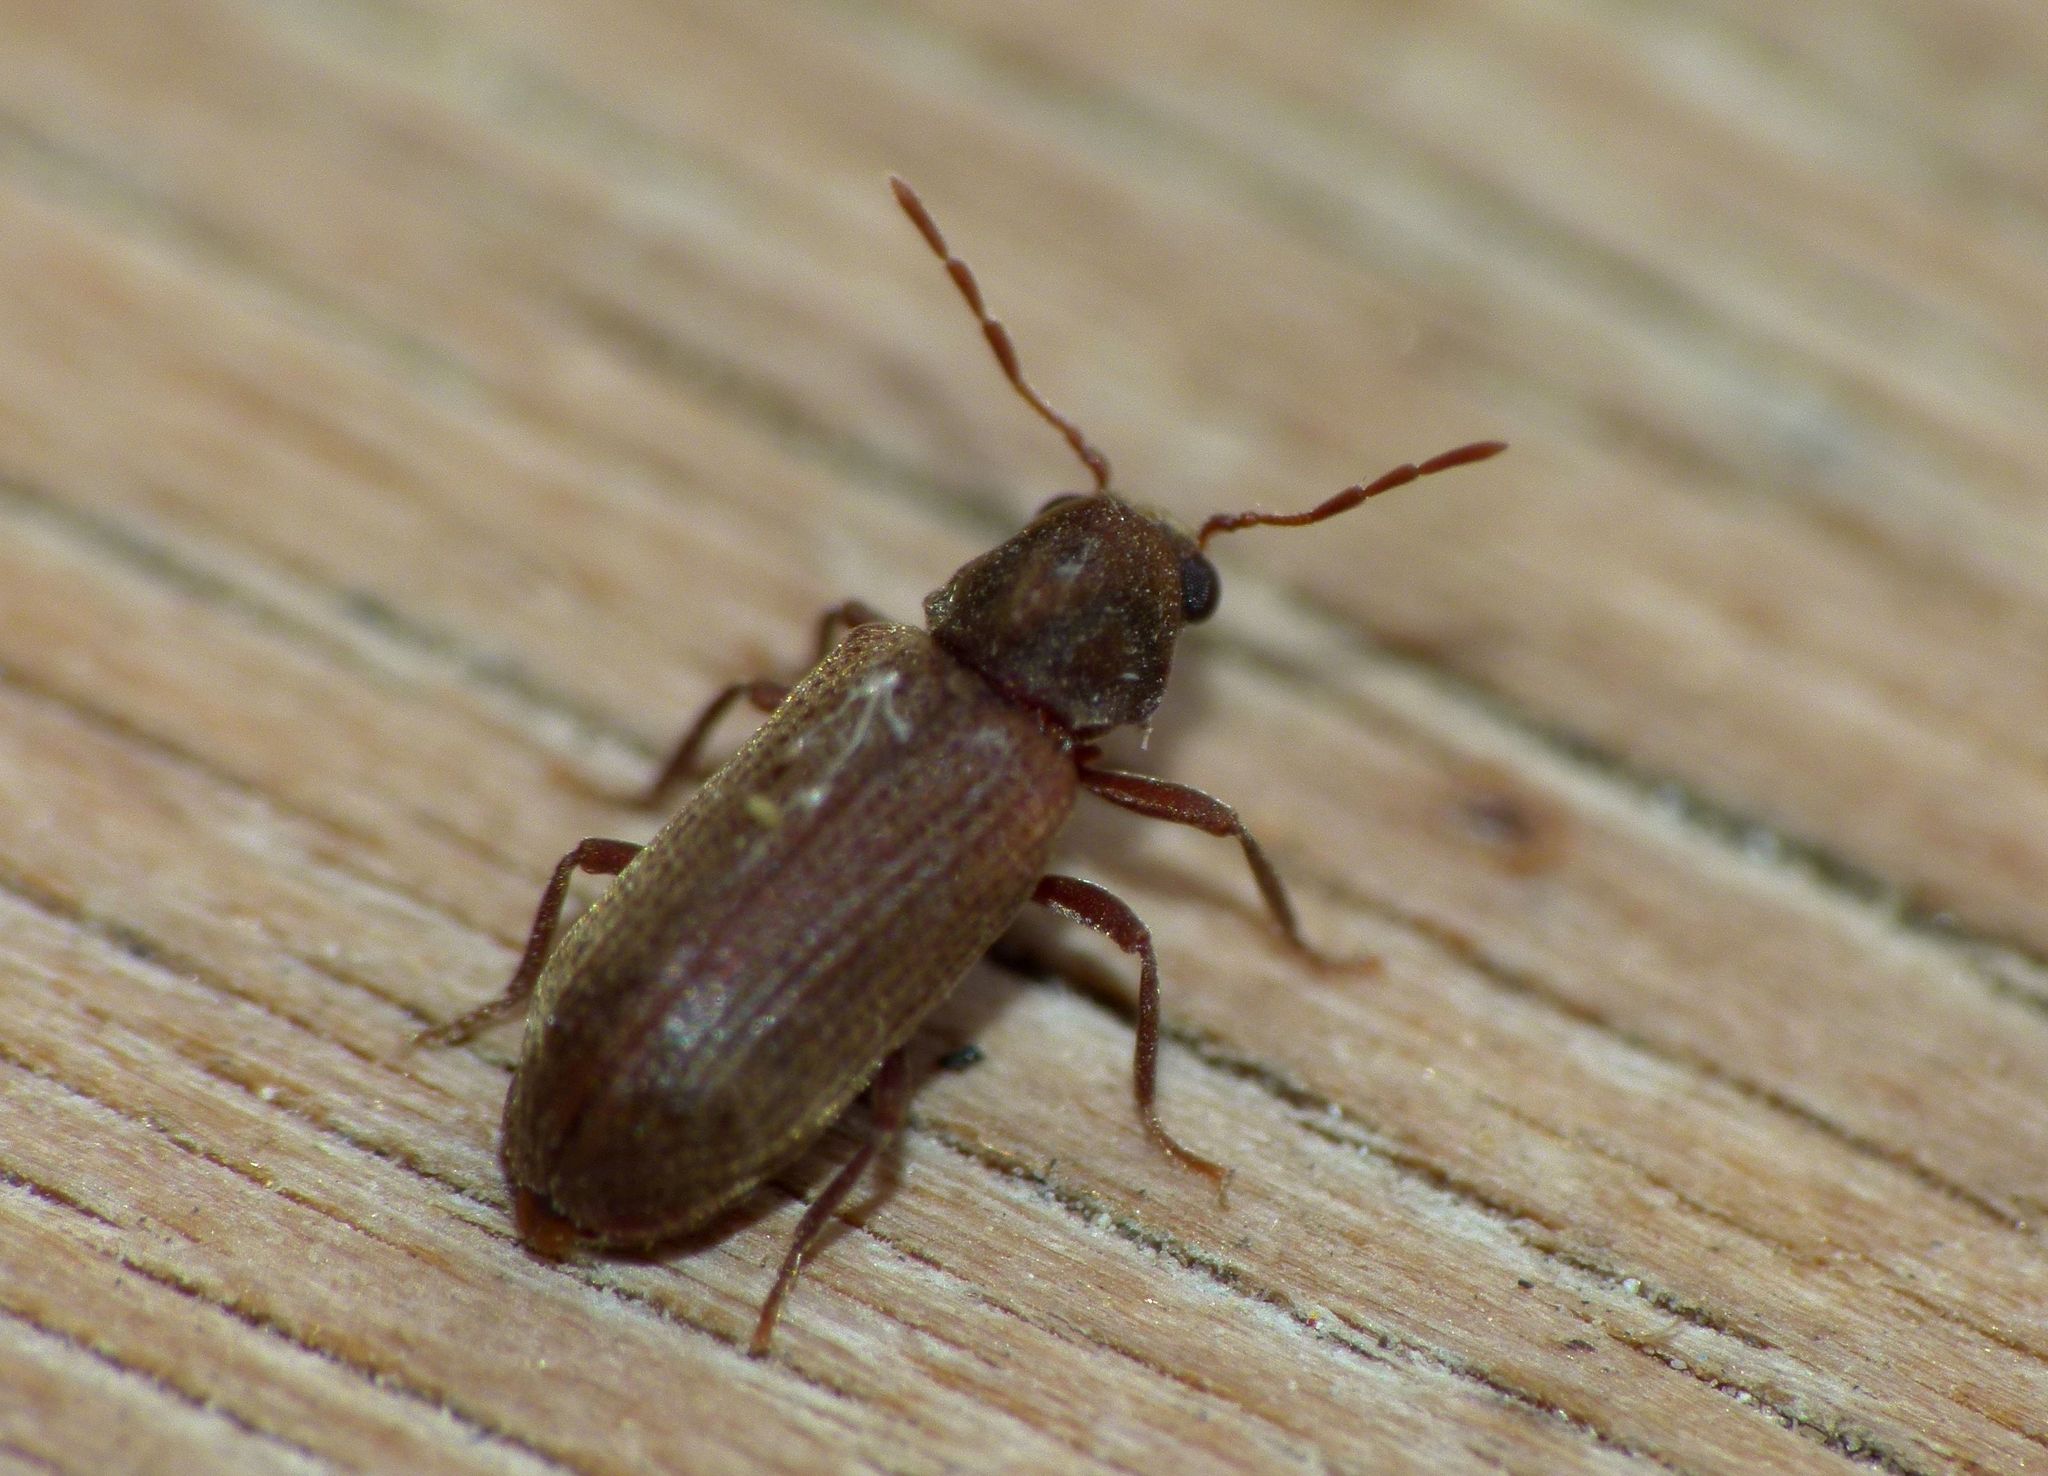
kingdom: Animalia
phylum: Arthropoda
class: Insecta
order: Coleoptera
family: Anobiidae
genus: Anobium
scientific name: Anobium punctatum
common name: Furniture beetle
